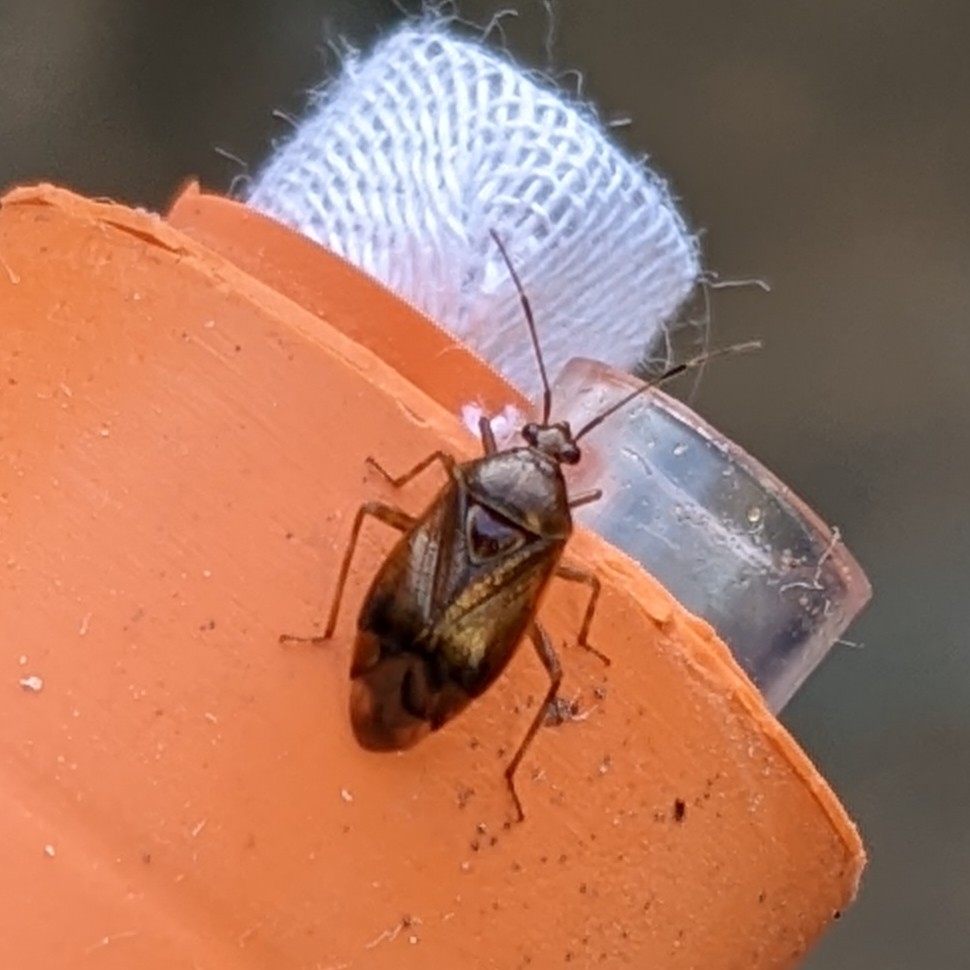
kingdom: Animalia
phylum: Arthropoda
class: Insecta
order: Hemiptera
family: Miridae
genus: Deraeocoris
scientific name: Deraeocoris flavilinea
